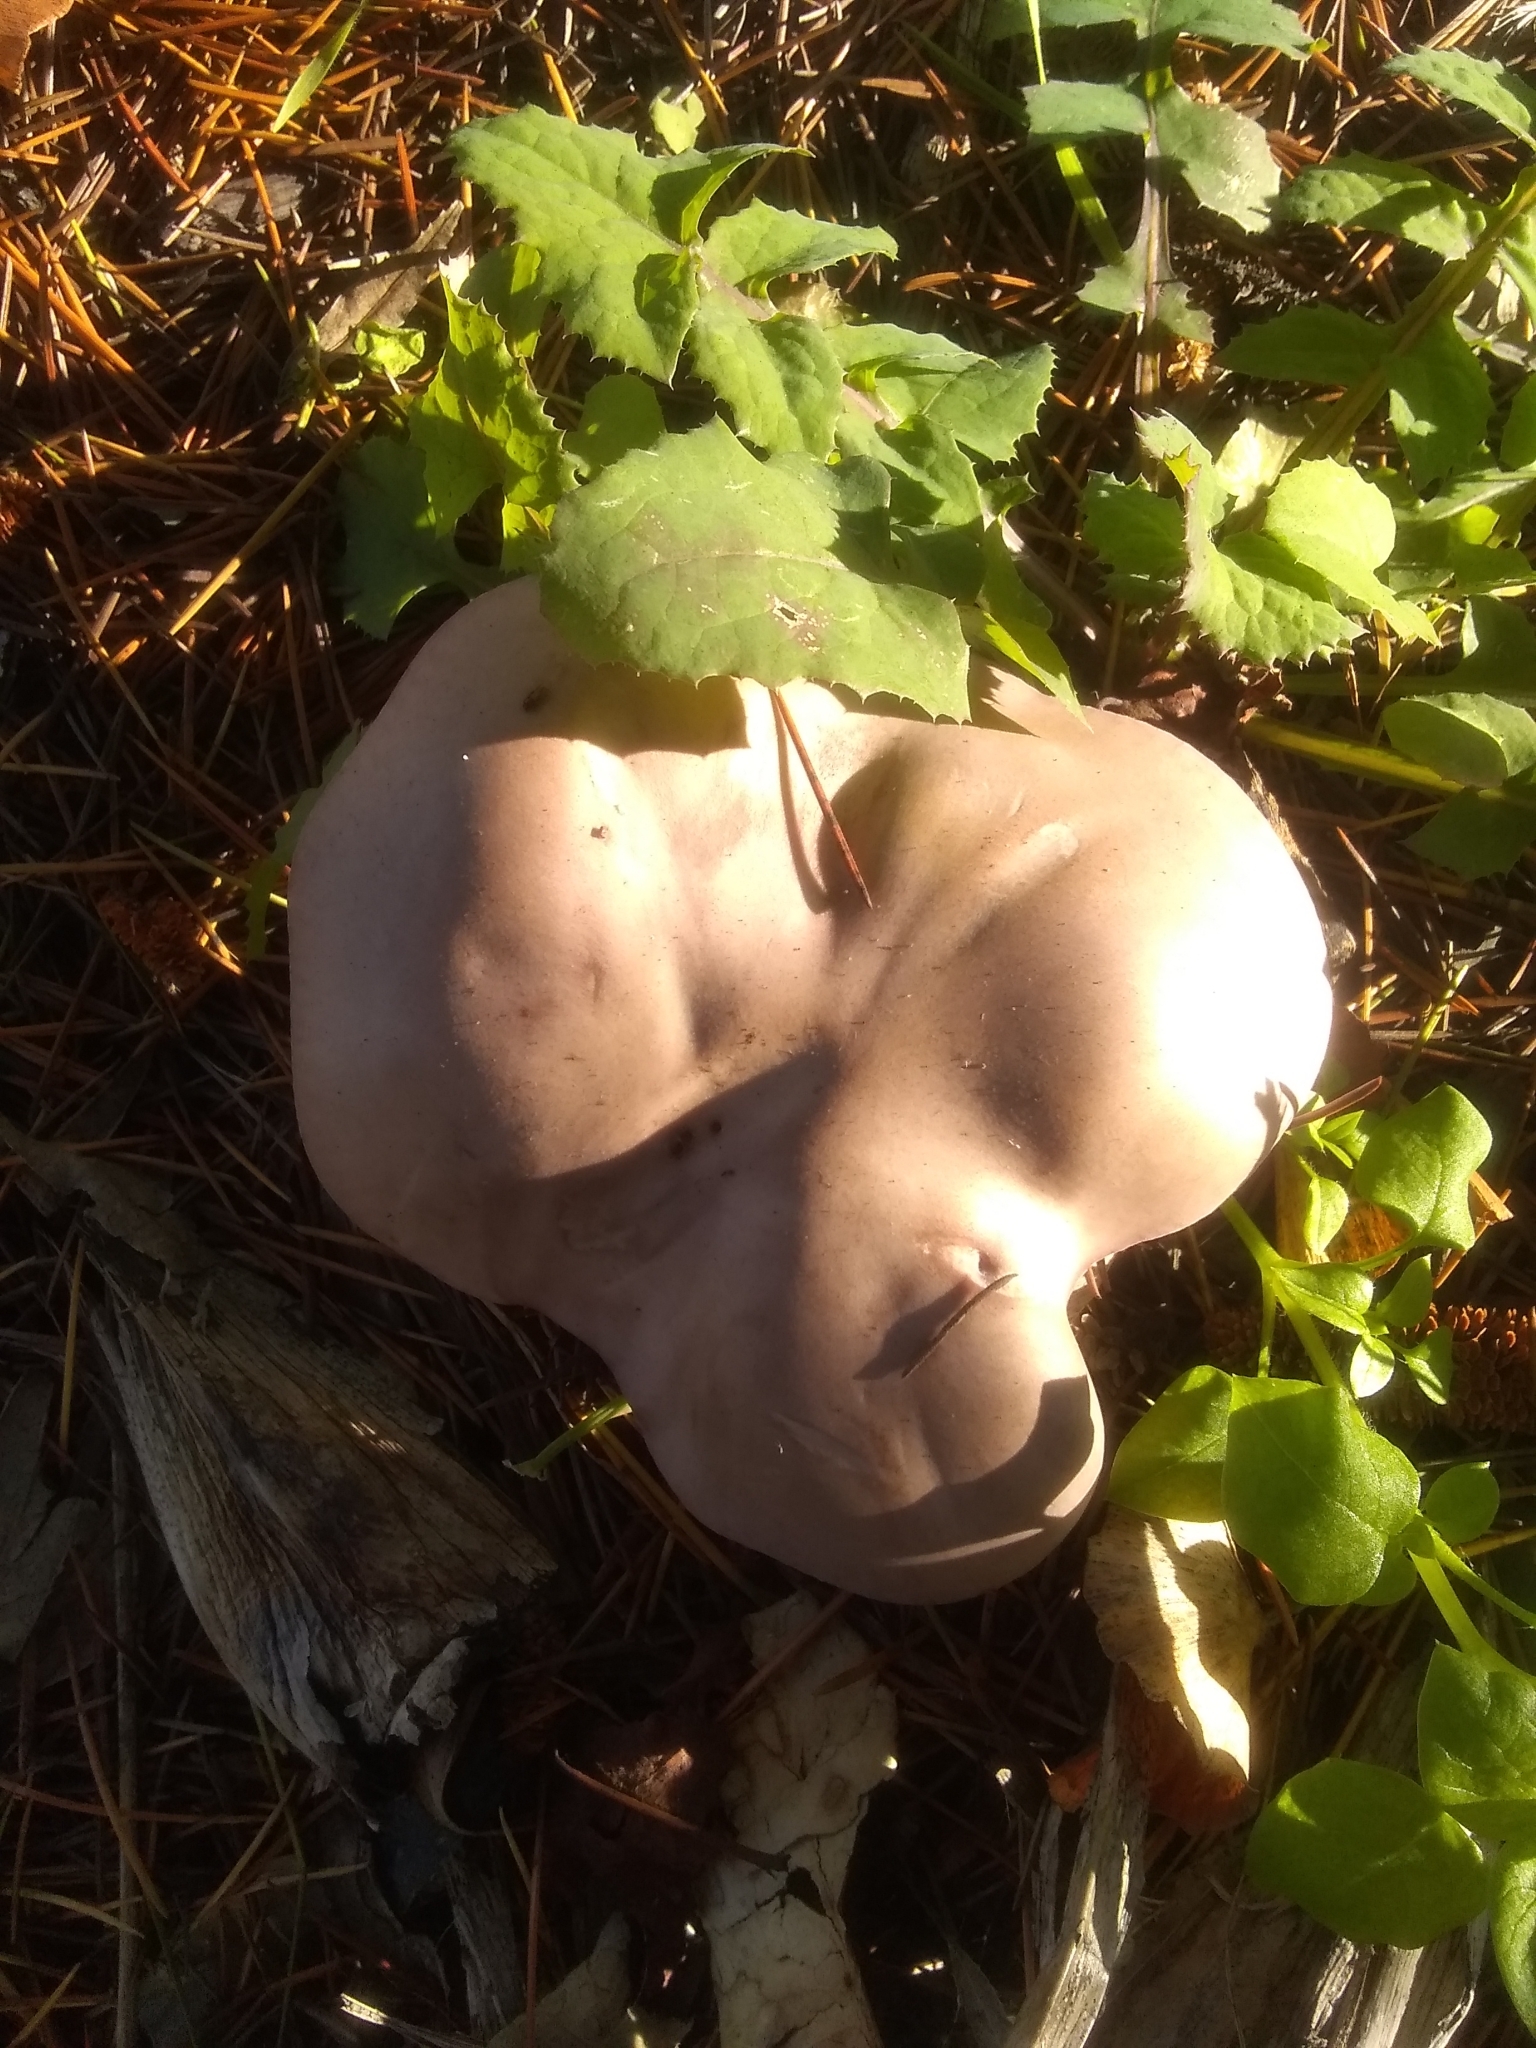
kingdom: Fungi
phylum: Basidiomycota
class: Agaricomycetes
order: Agaricales
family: Tricholomataceae
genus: Collybia
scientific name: Collybia
